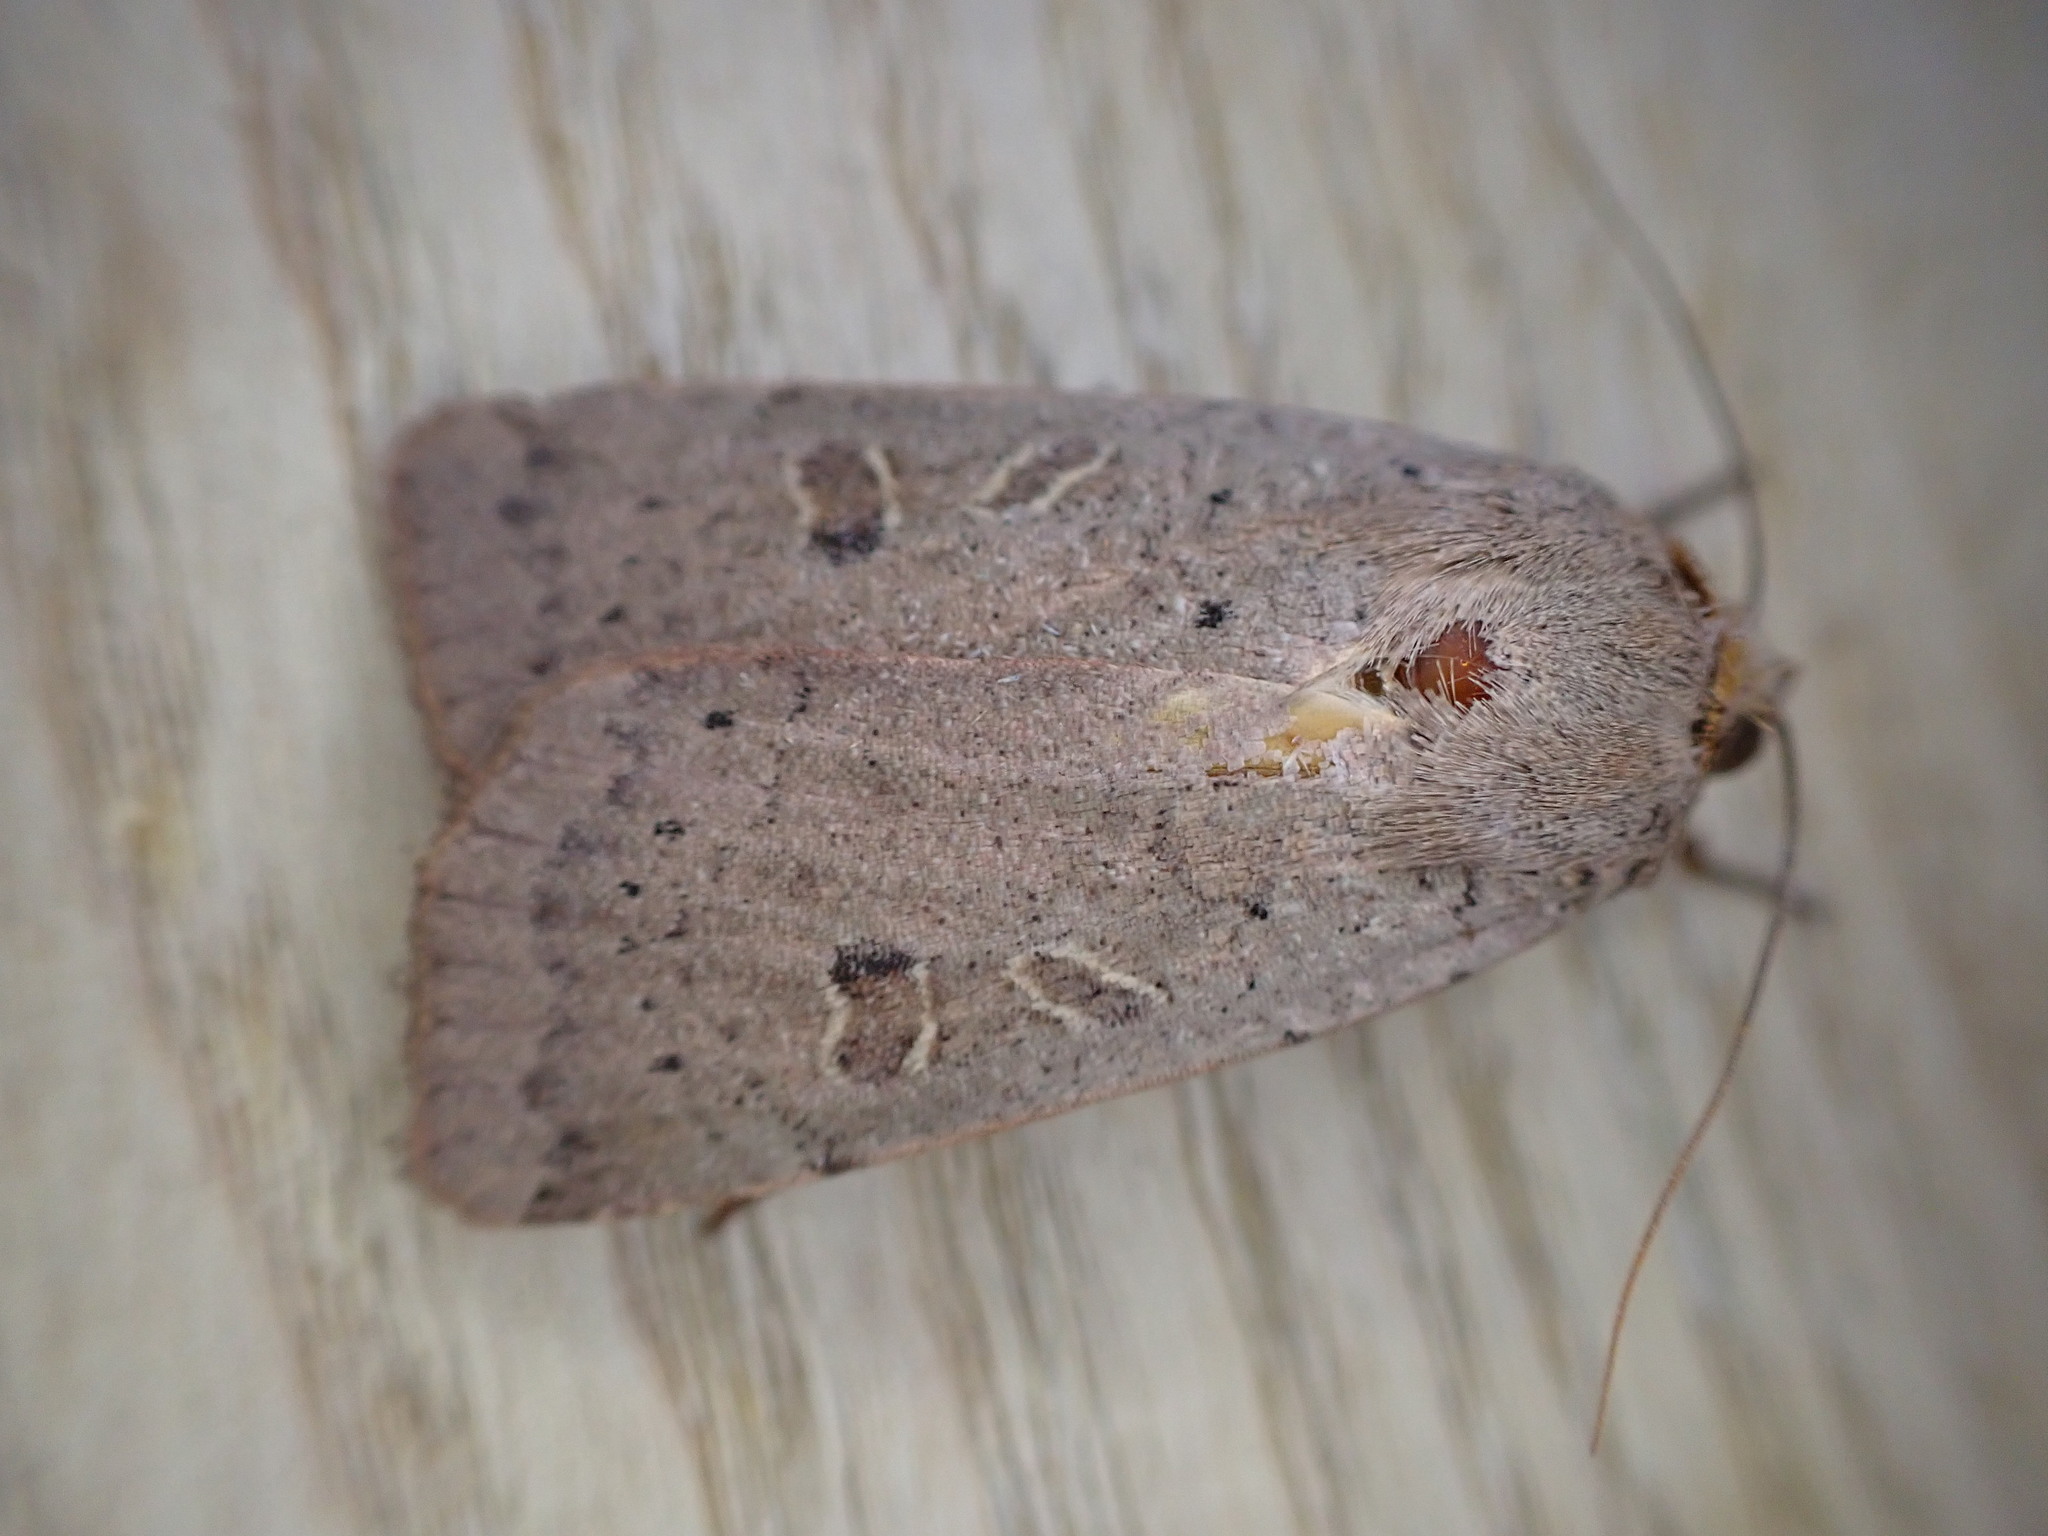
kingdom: Animalia
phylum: Arthropoda
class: Insecta
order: Lepidoptera
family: Noctuidae
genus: Noctua
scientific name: Noctua comes
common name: Lesser yellow underwing
